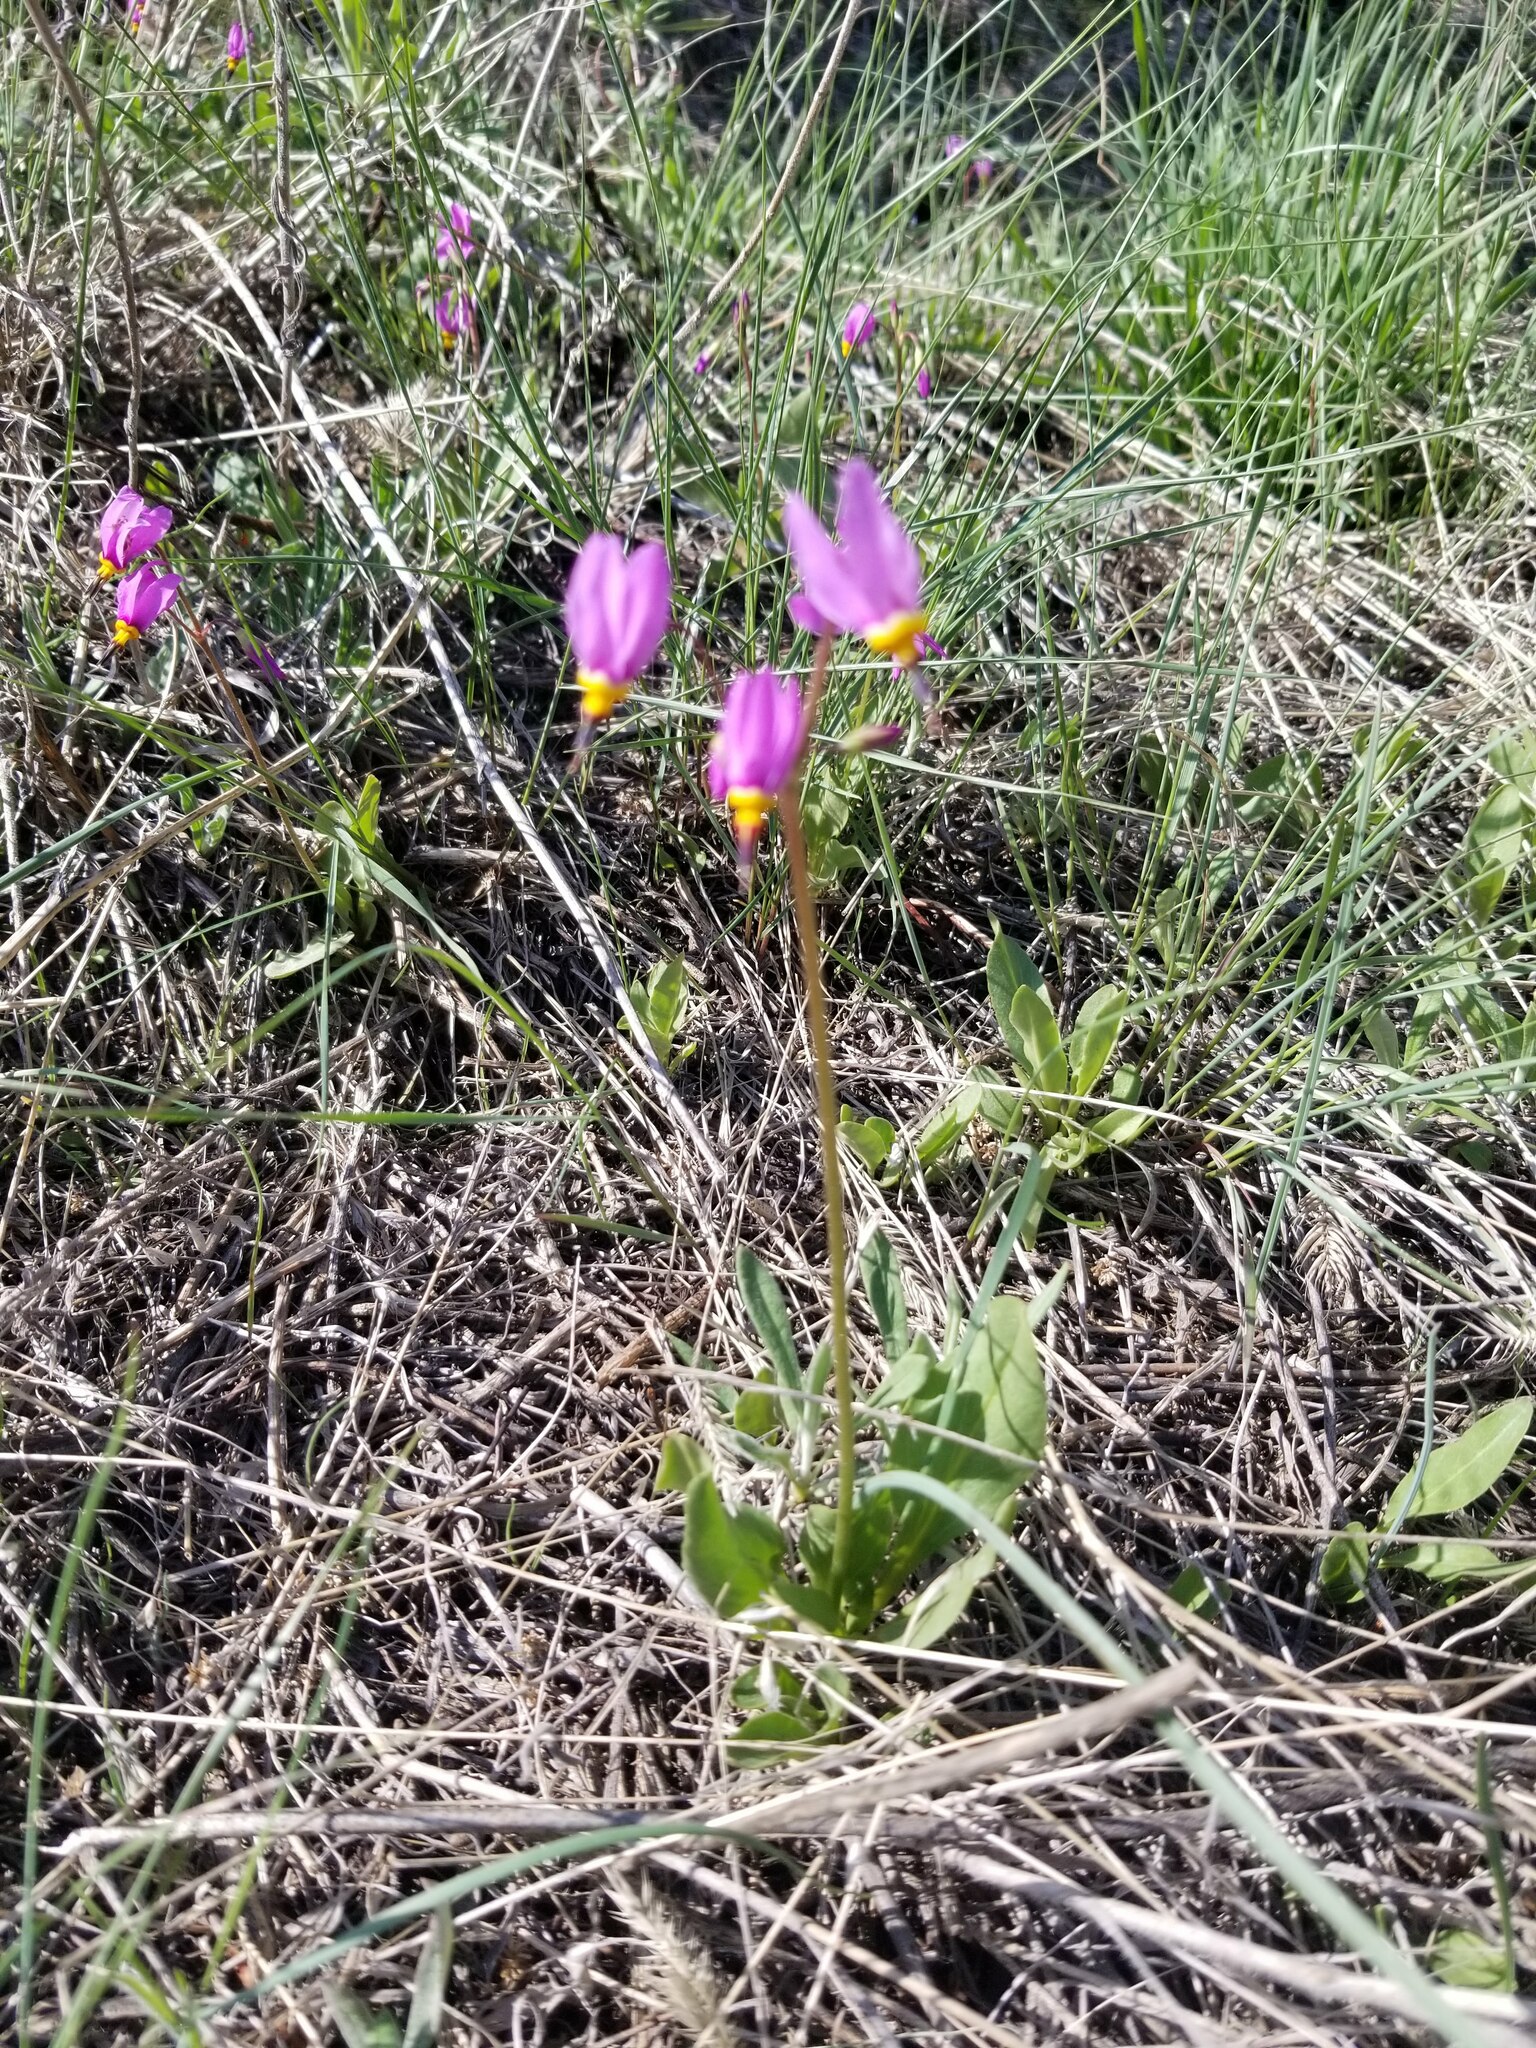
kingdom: Plantae
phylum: Tracheophyta
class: Magnoliopsida
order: Ericales
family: Primulaceae
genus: Dodecatheon
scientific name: Dodecatheon pulchellum
